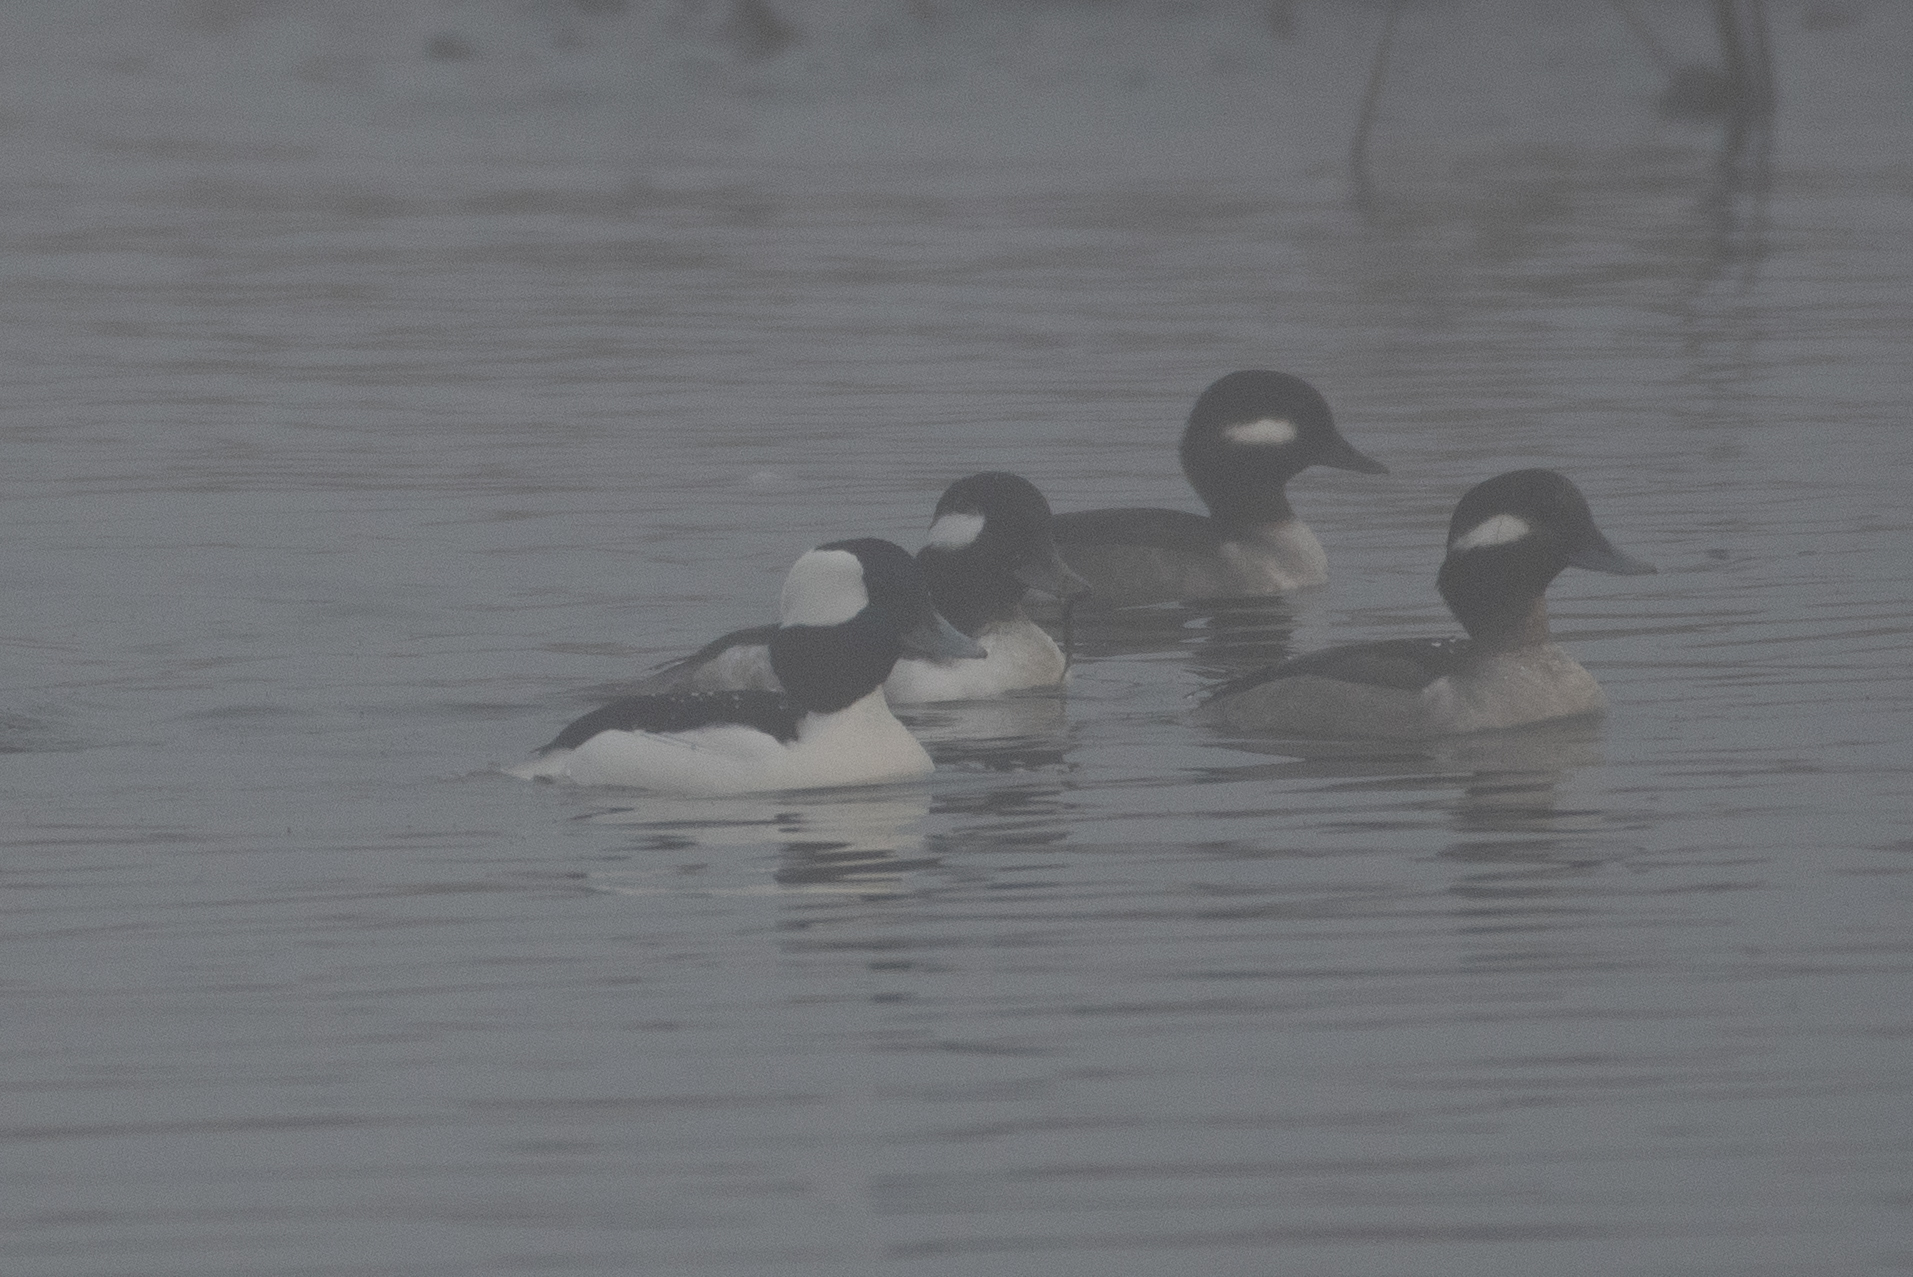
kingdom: Animalia
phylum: Chordata
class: Aves
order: Anseriformes
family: Anatidae
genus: Bucephala
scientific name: Bucephala albeola
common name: Bufflehead
